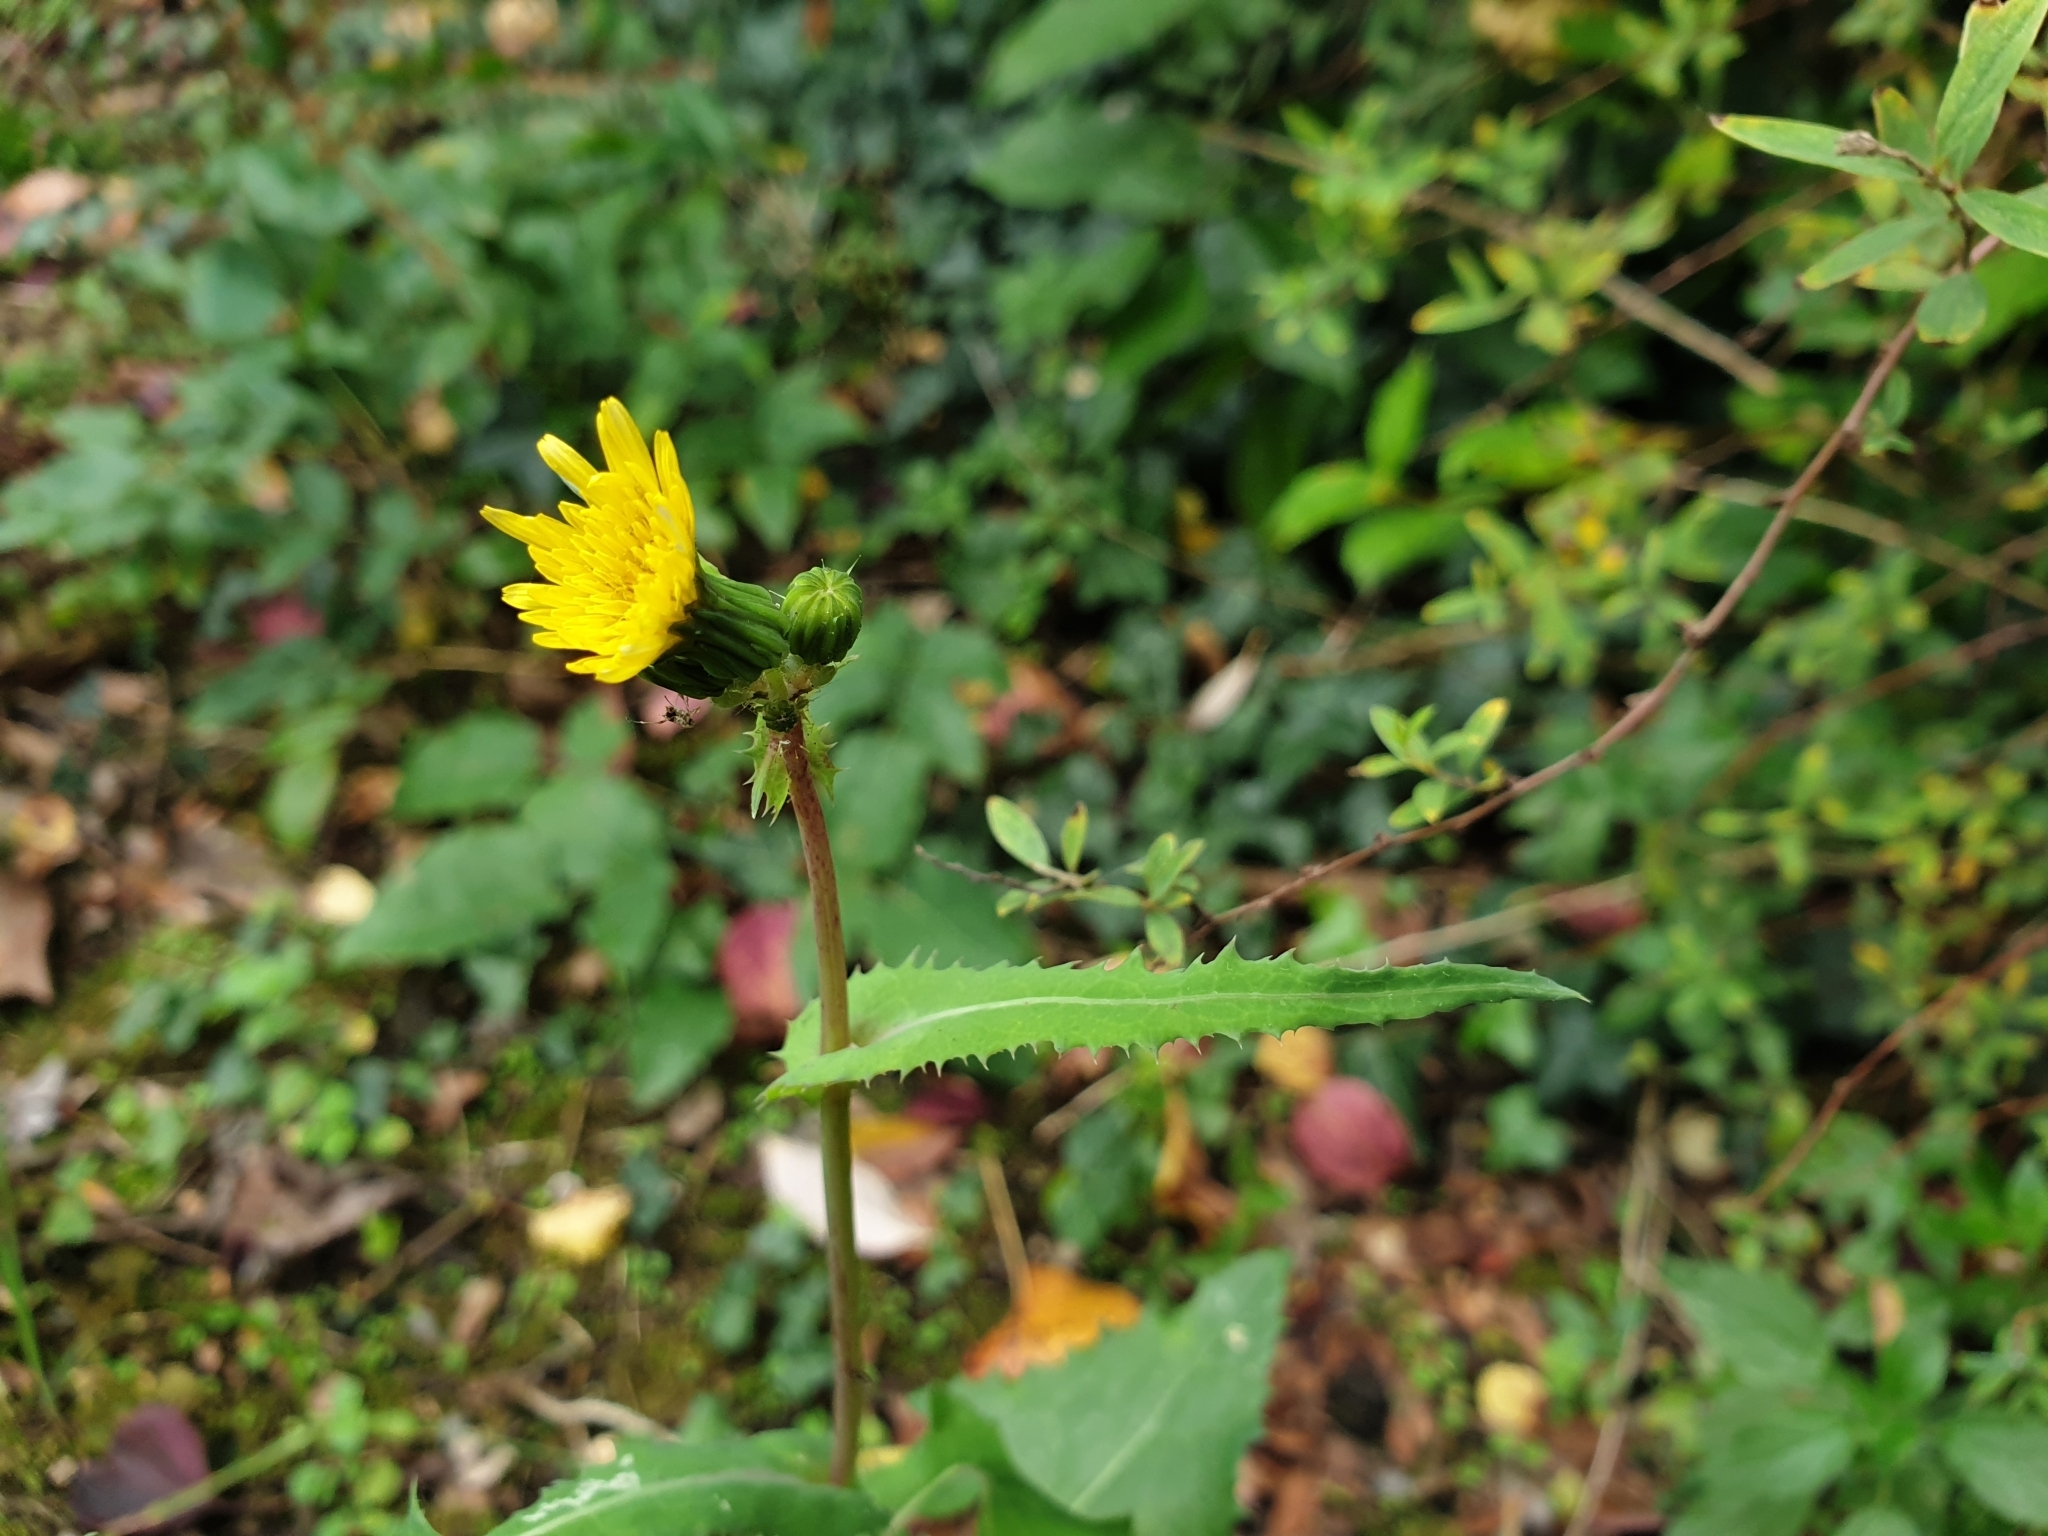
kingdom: Plantae
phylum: Tracheophyta
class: Magnoliopsida
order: Asterales
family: Asteraceae
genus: Sonchus
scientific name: Sonchus oleraceus
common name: Common sowthistle
